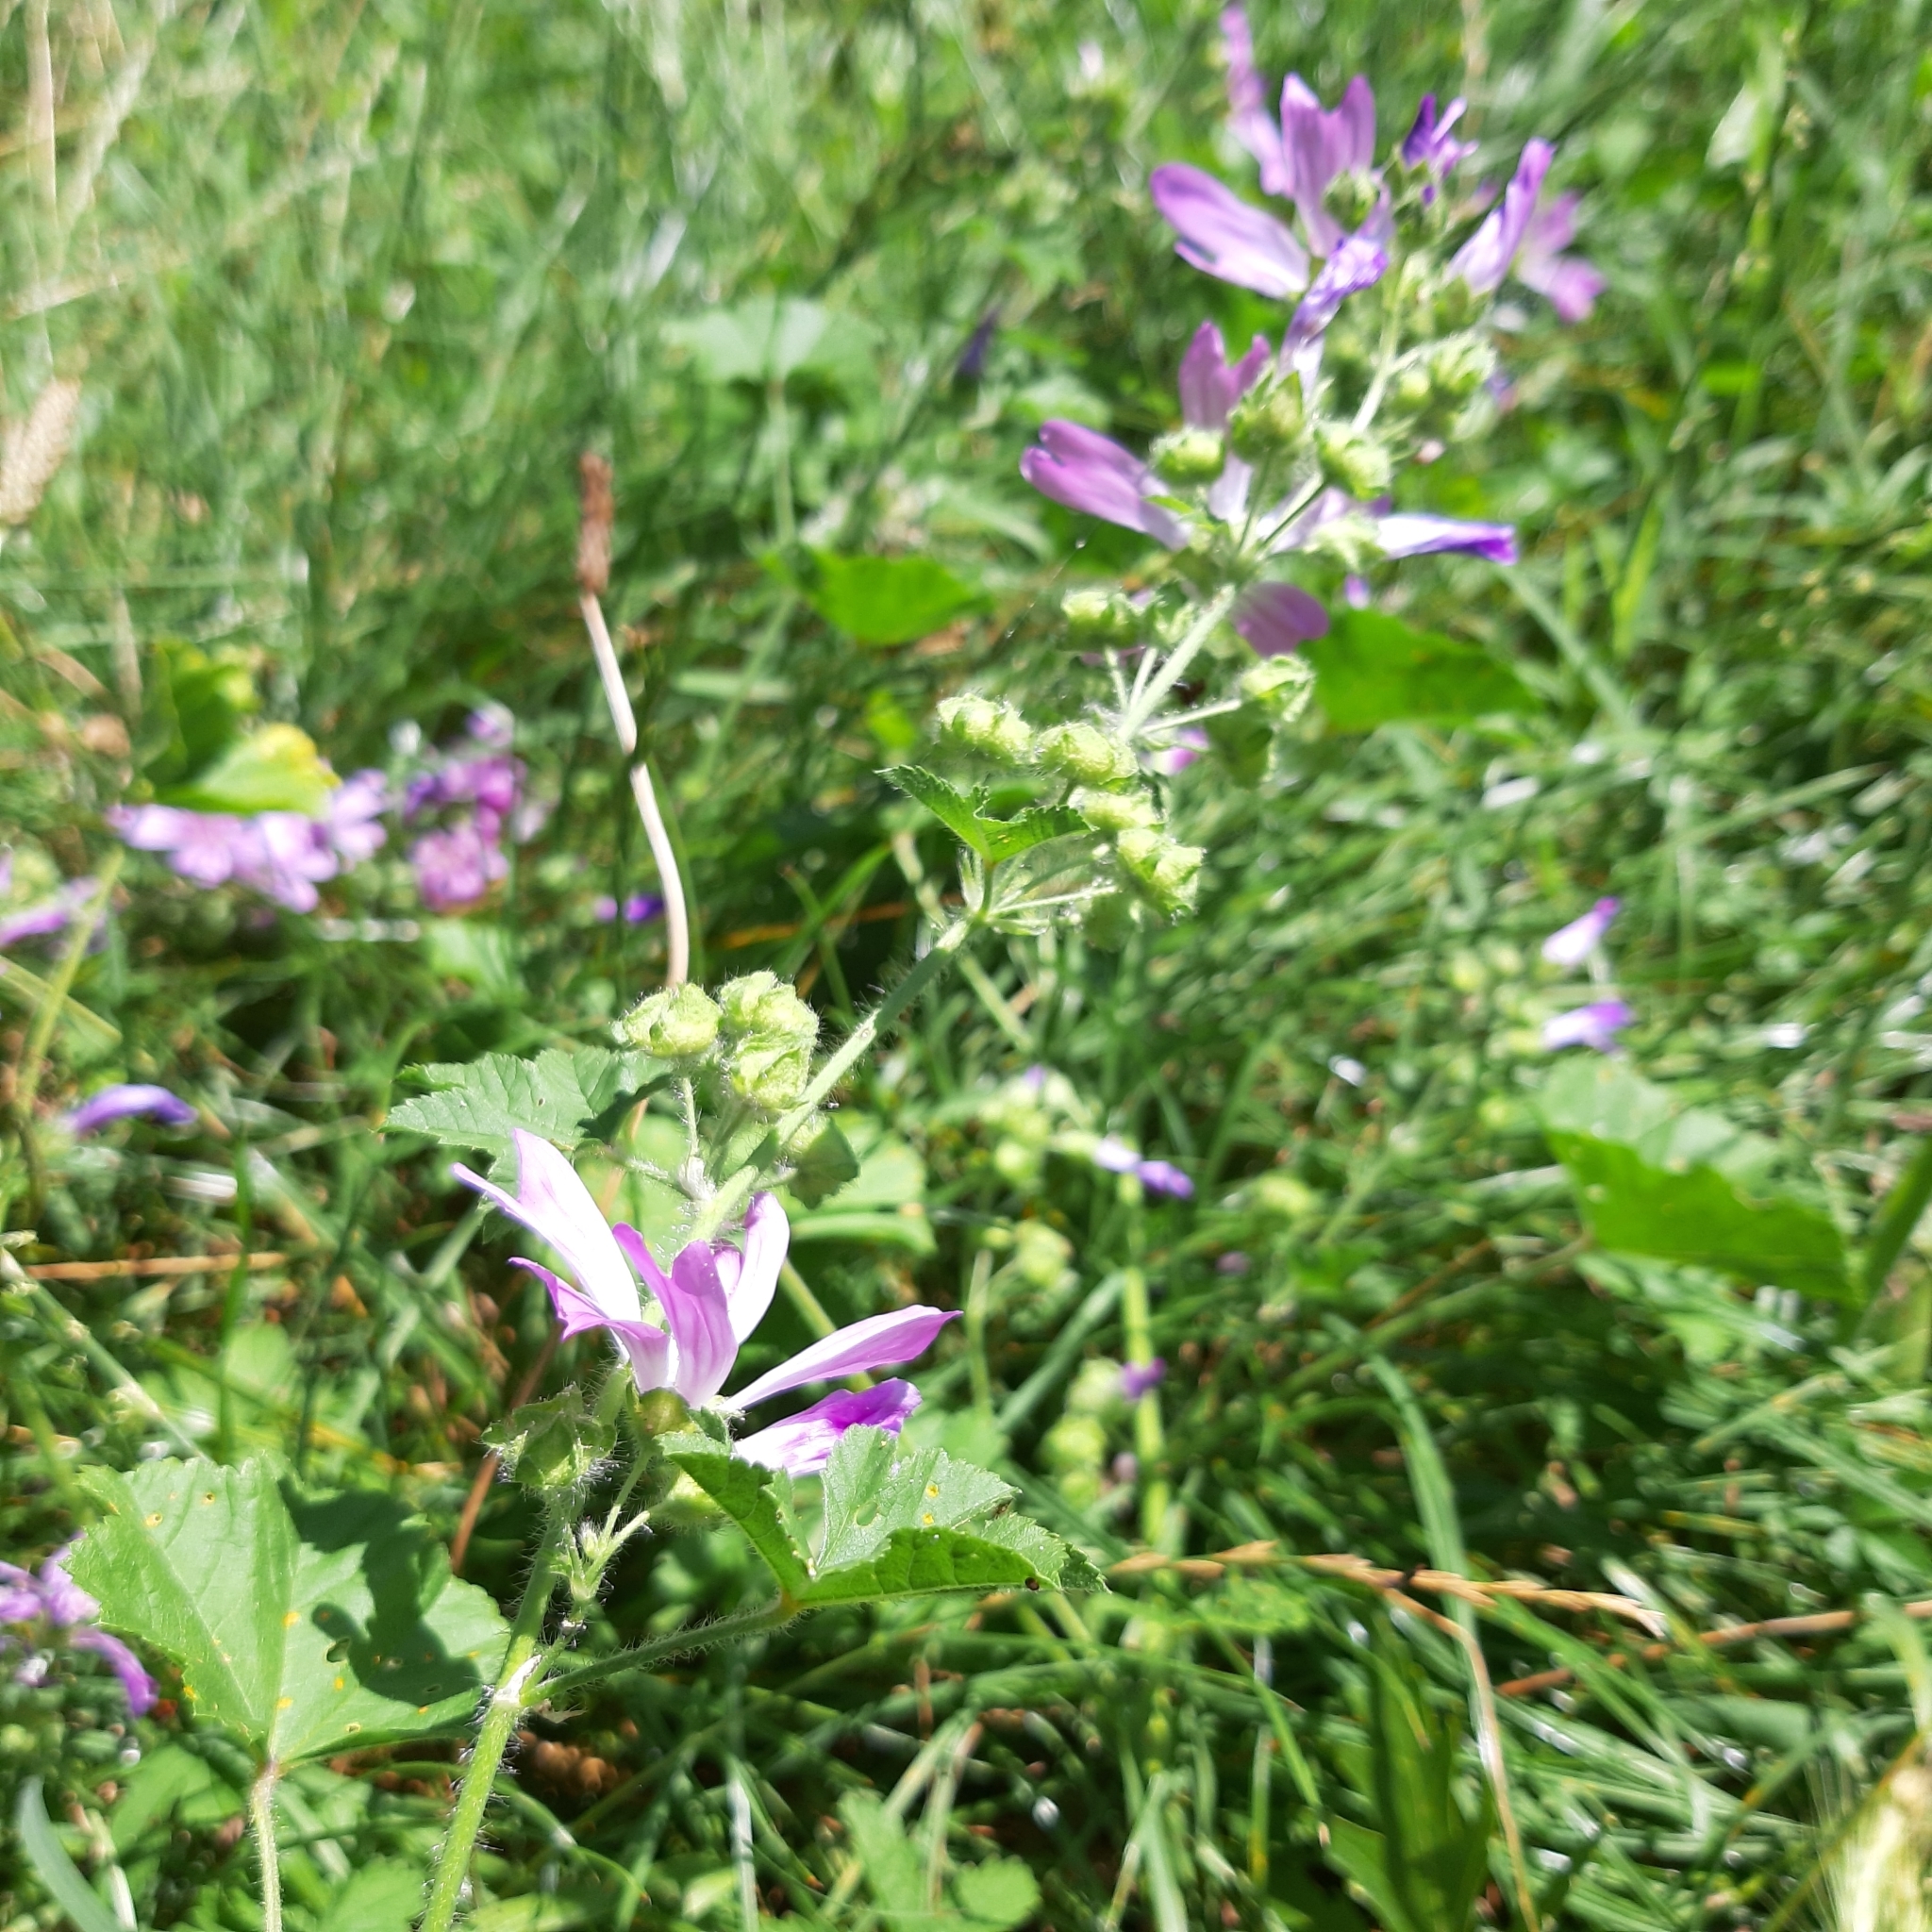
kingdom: Plantae
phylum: Tracheophyta
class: Magnoliopsida
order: Malvales
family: Malvaceae
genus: Malva
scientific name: Malva sylvestris
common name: Common mallow
